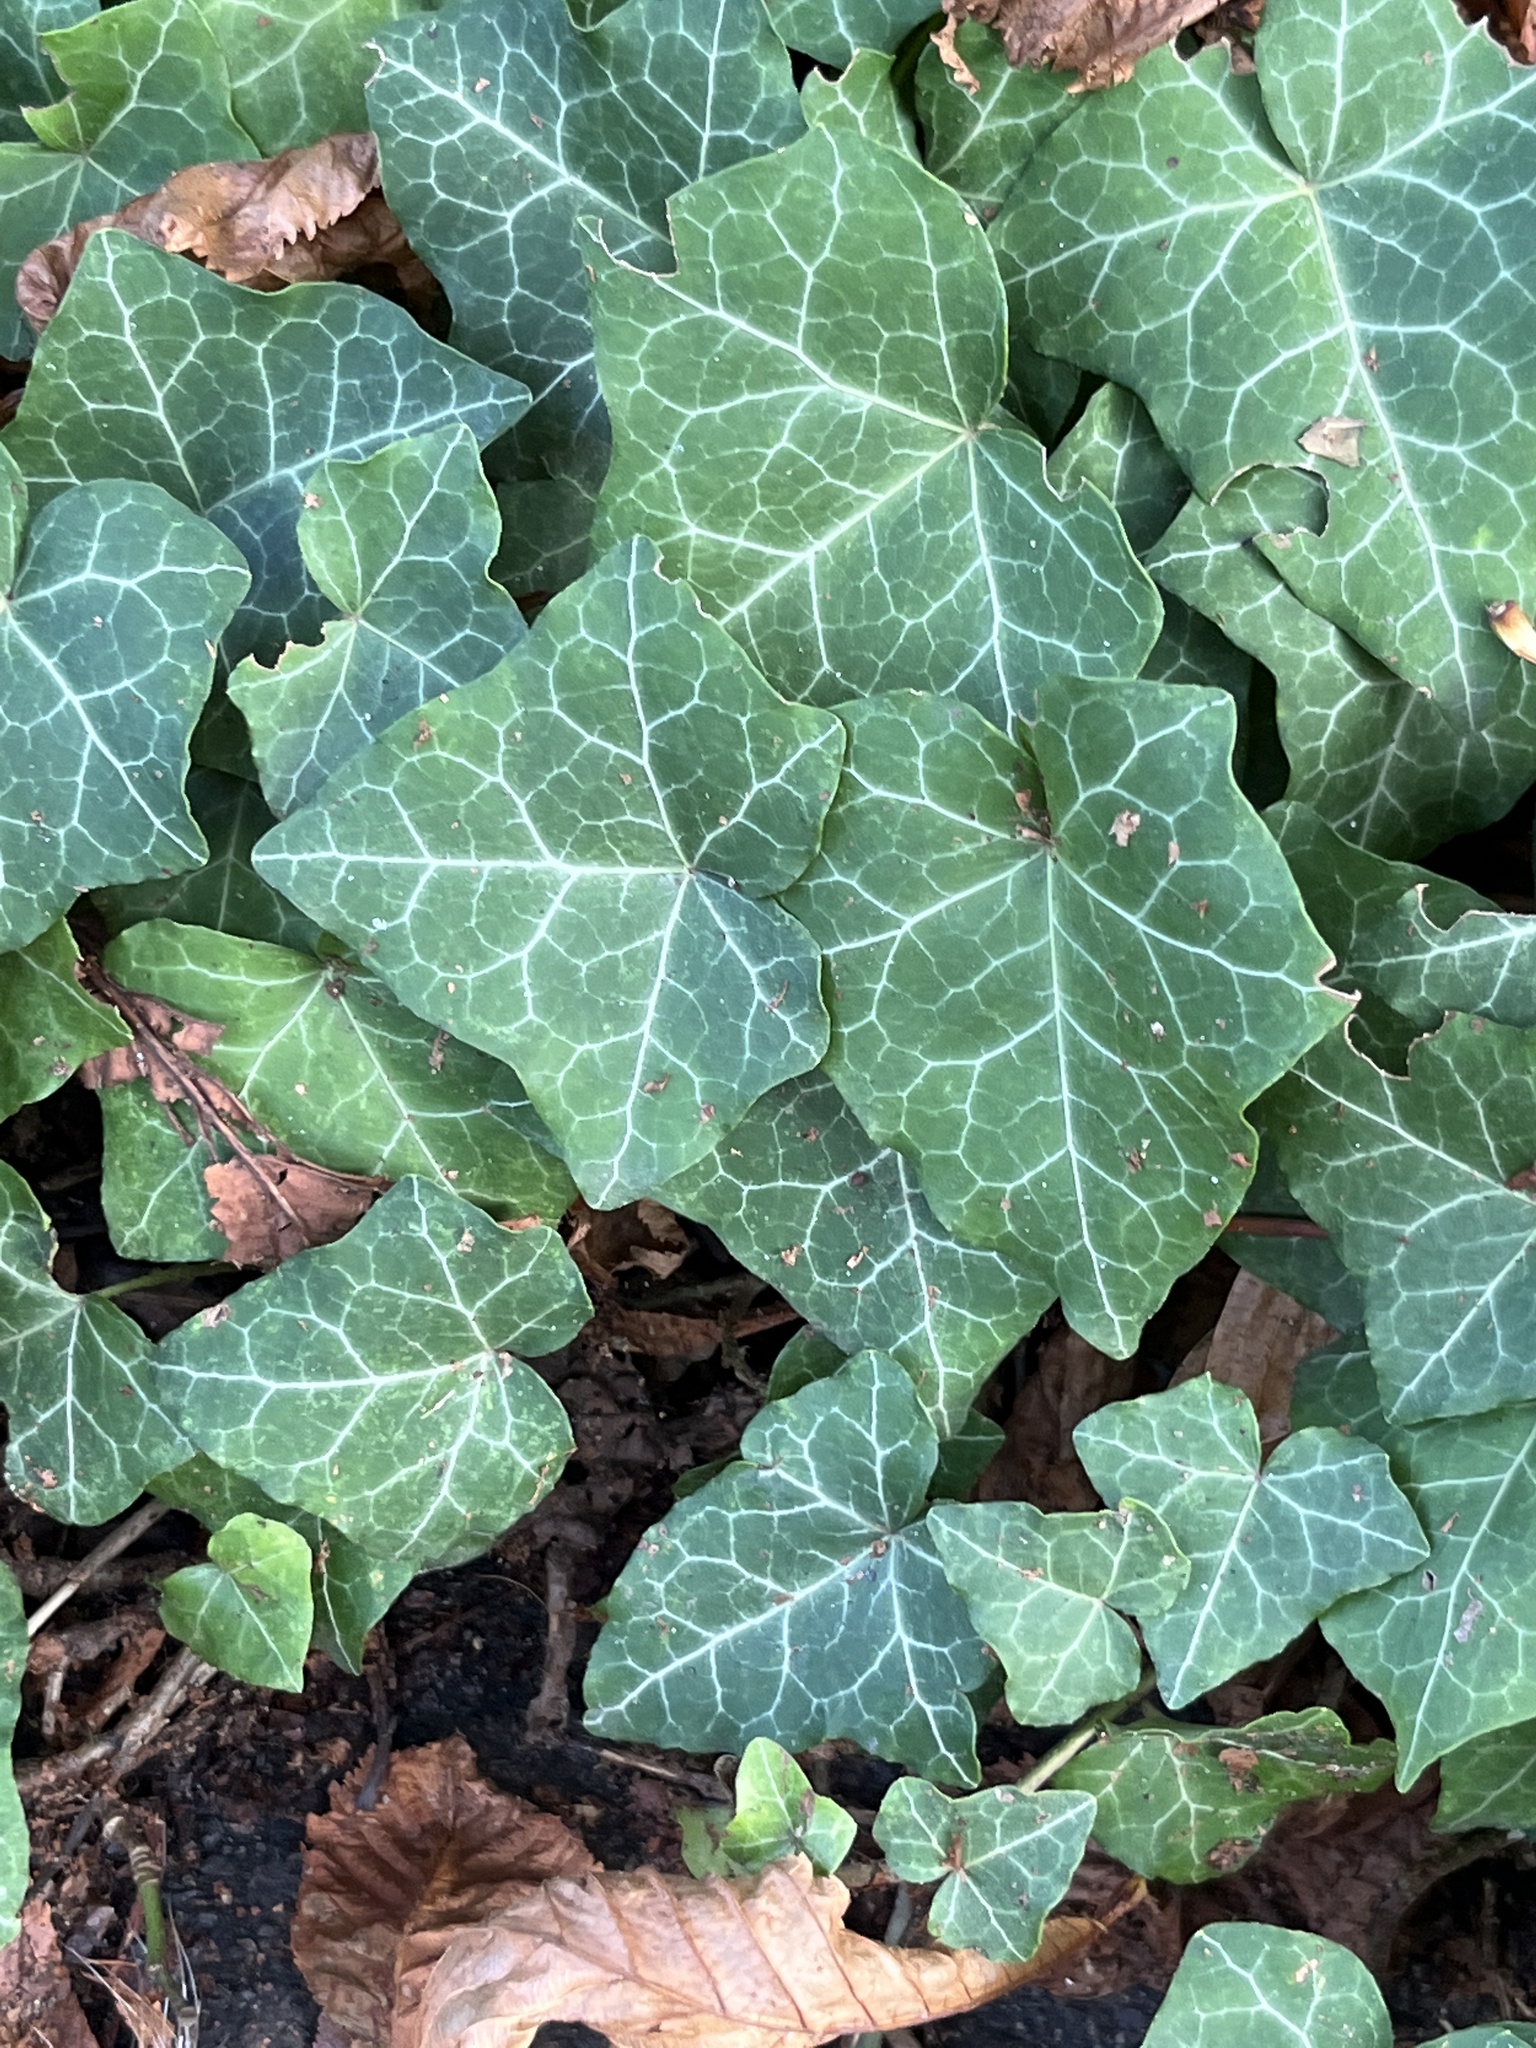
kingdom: Plantae
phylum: Tracheophyta
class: Magnoliopsida
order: Apiales
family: Araliaceae
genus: Hedera
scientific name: Hedera helix
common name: Ivy
